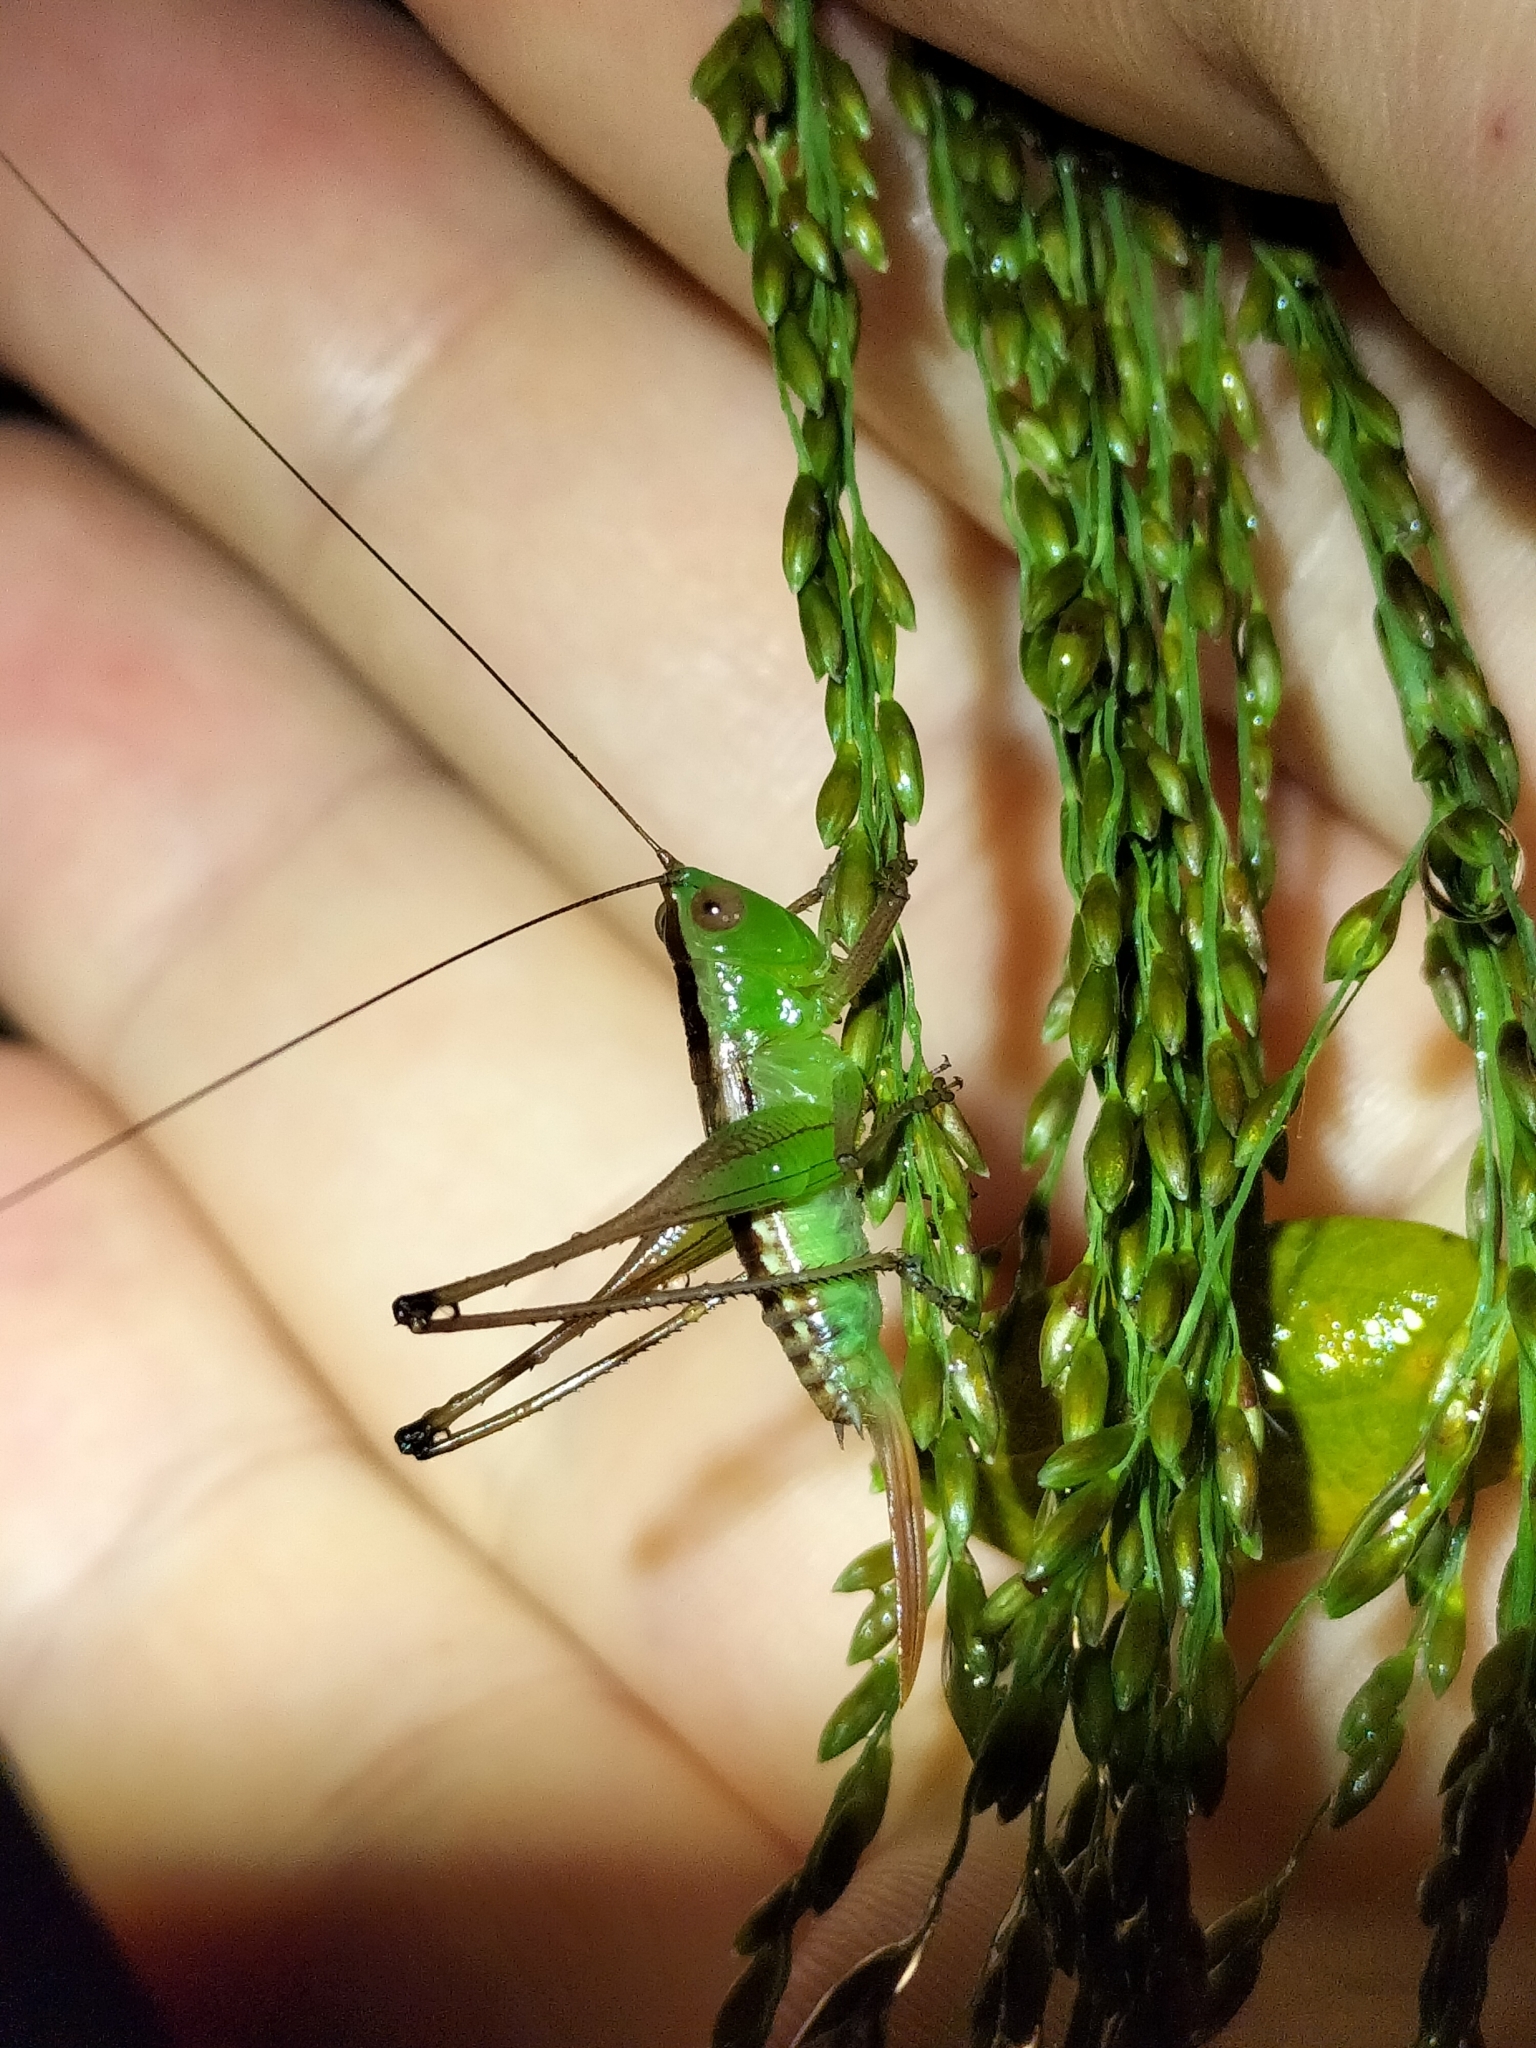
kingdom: Animalia
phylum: Arthropoda
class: Insecta
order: Orthoptera
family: Tettigoniidae
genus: Conocephalus
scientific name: Conocephalus semivittatus
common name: Blackish meadow katydid
